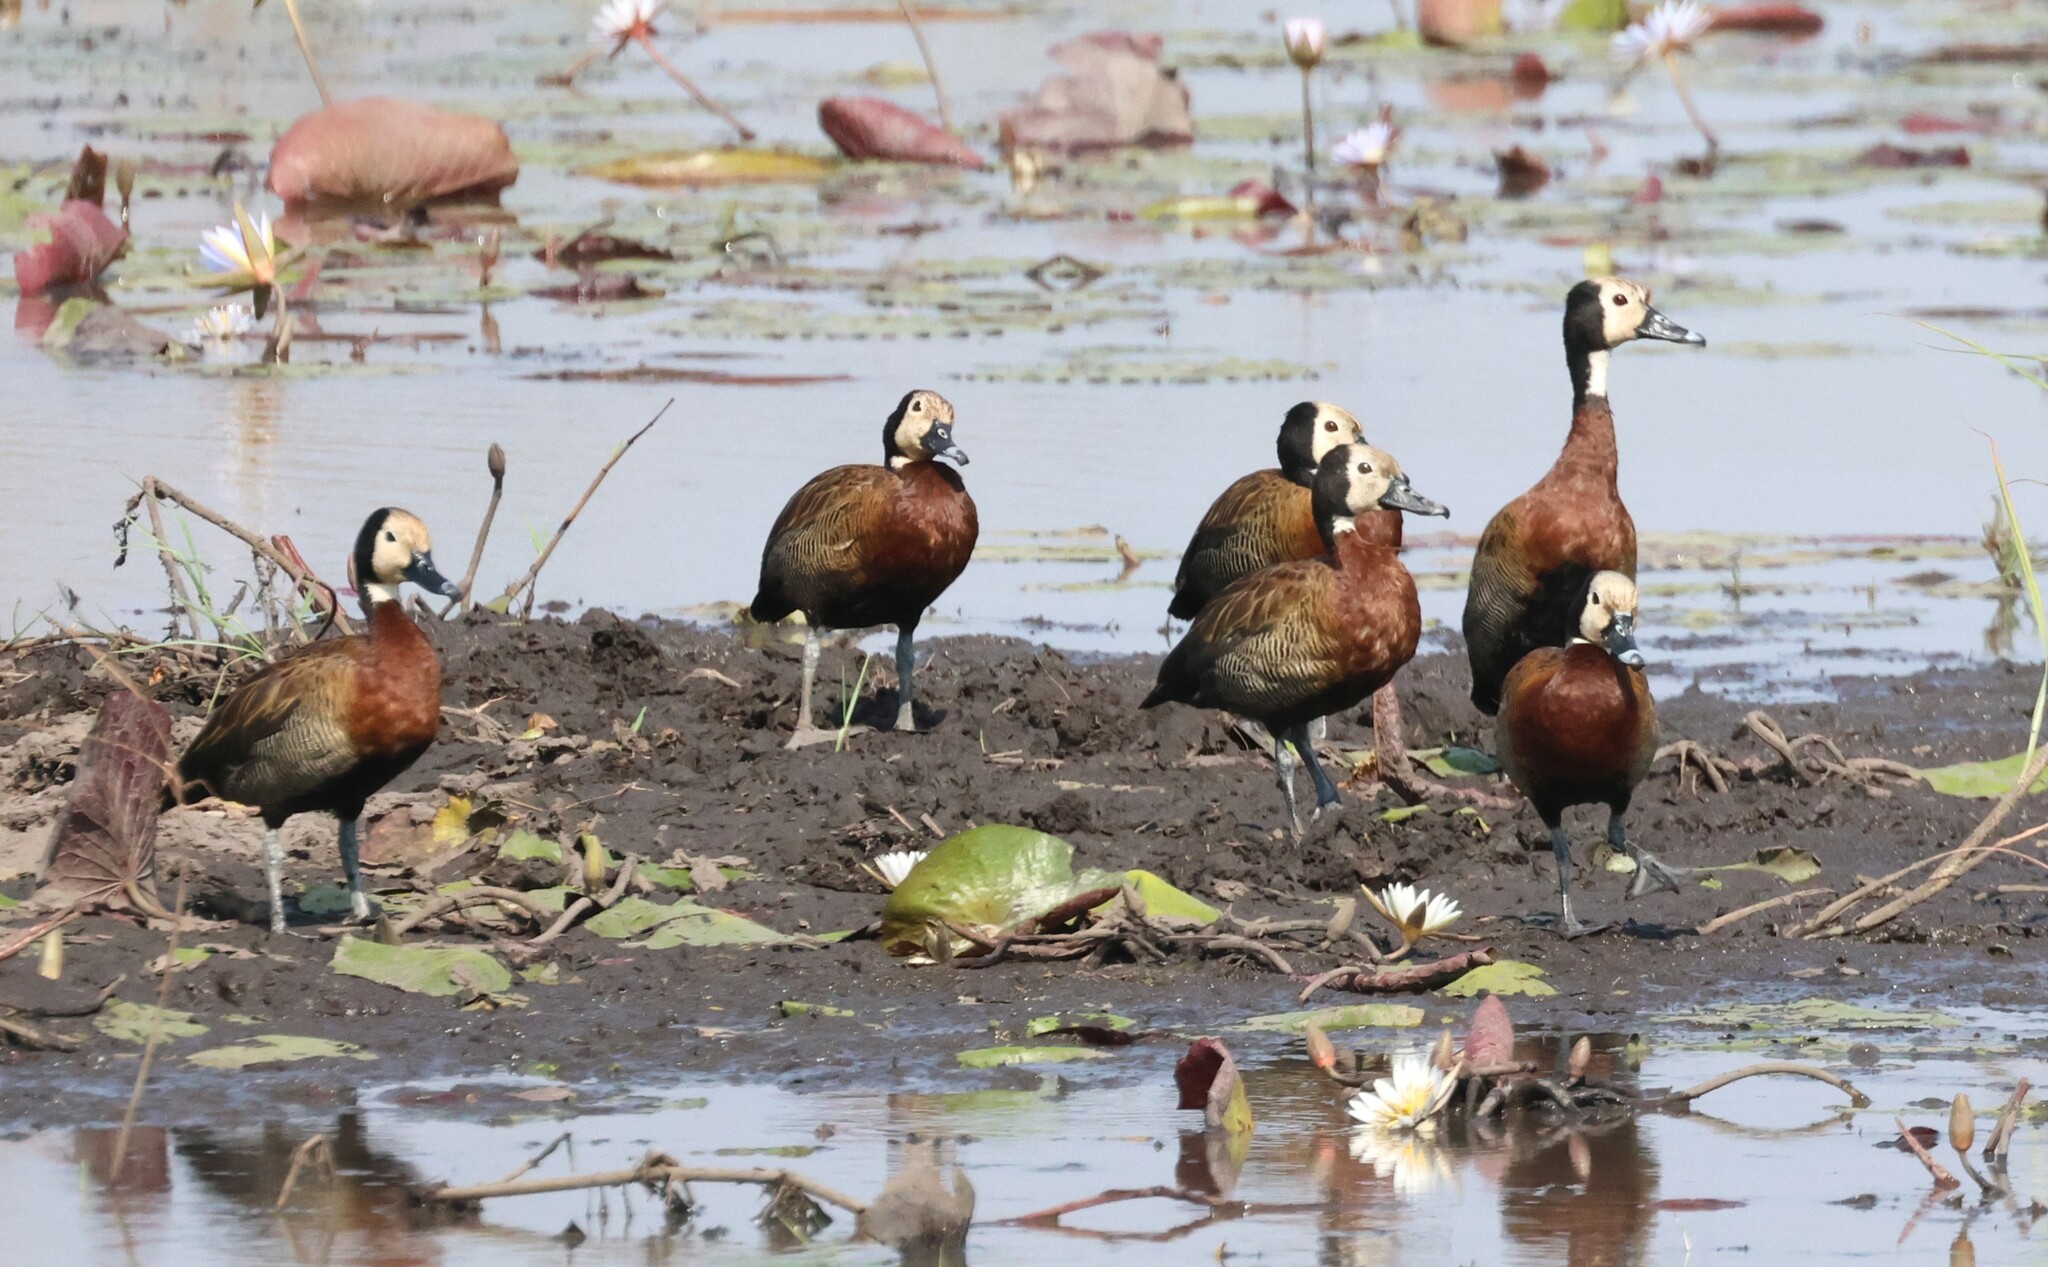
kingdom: Animalia
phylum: Chordata
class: Aves
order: Anseriformes
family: Anatidae
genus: Dendrocygna
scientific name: Dendrocygna viduata
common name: White-faced whistling duck
